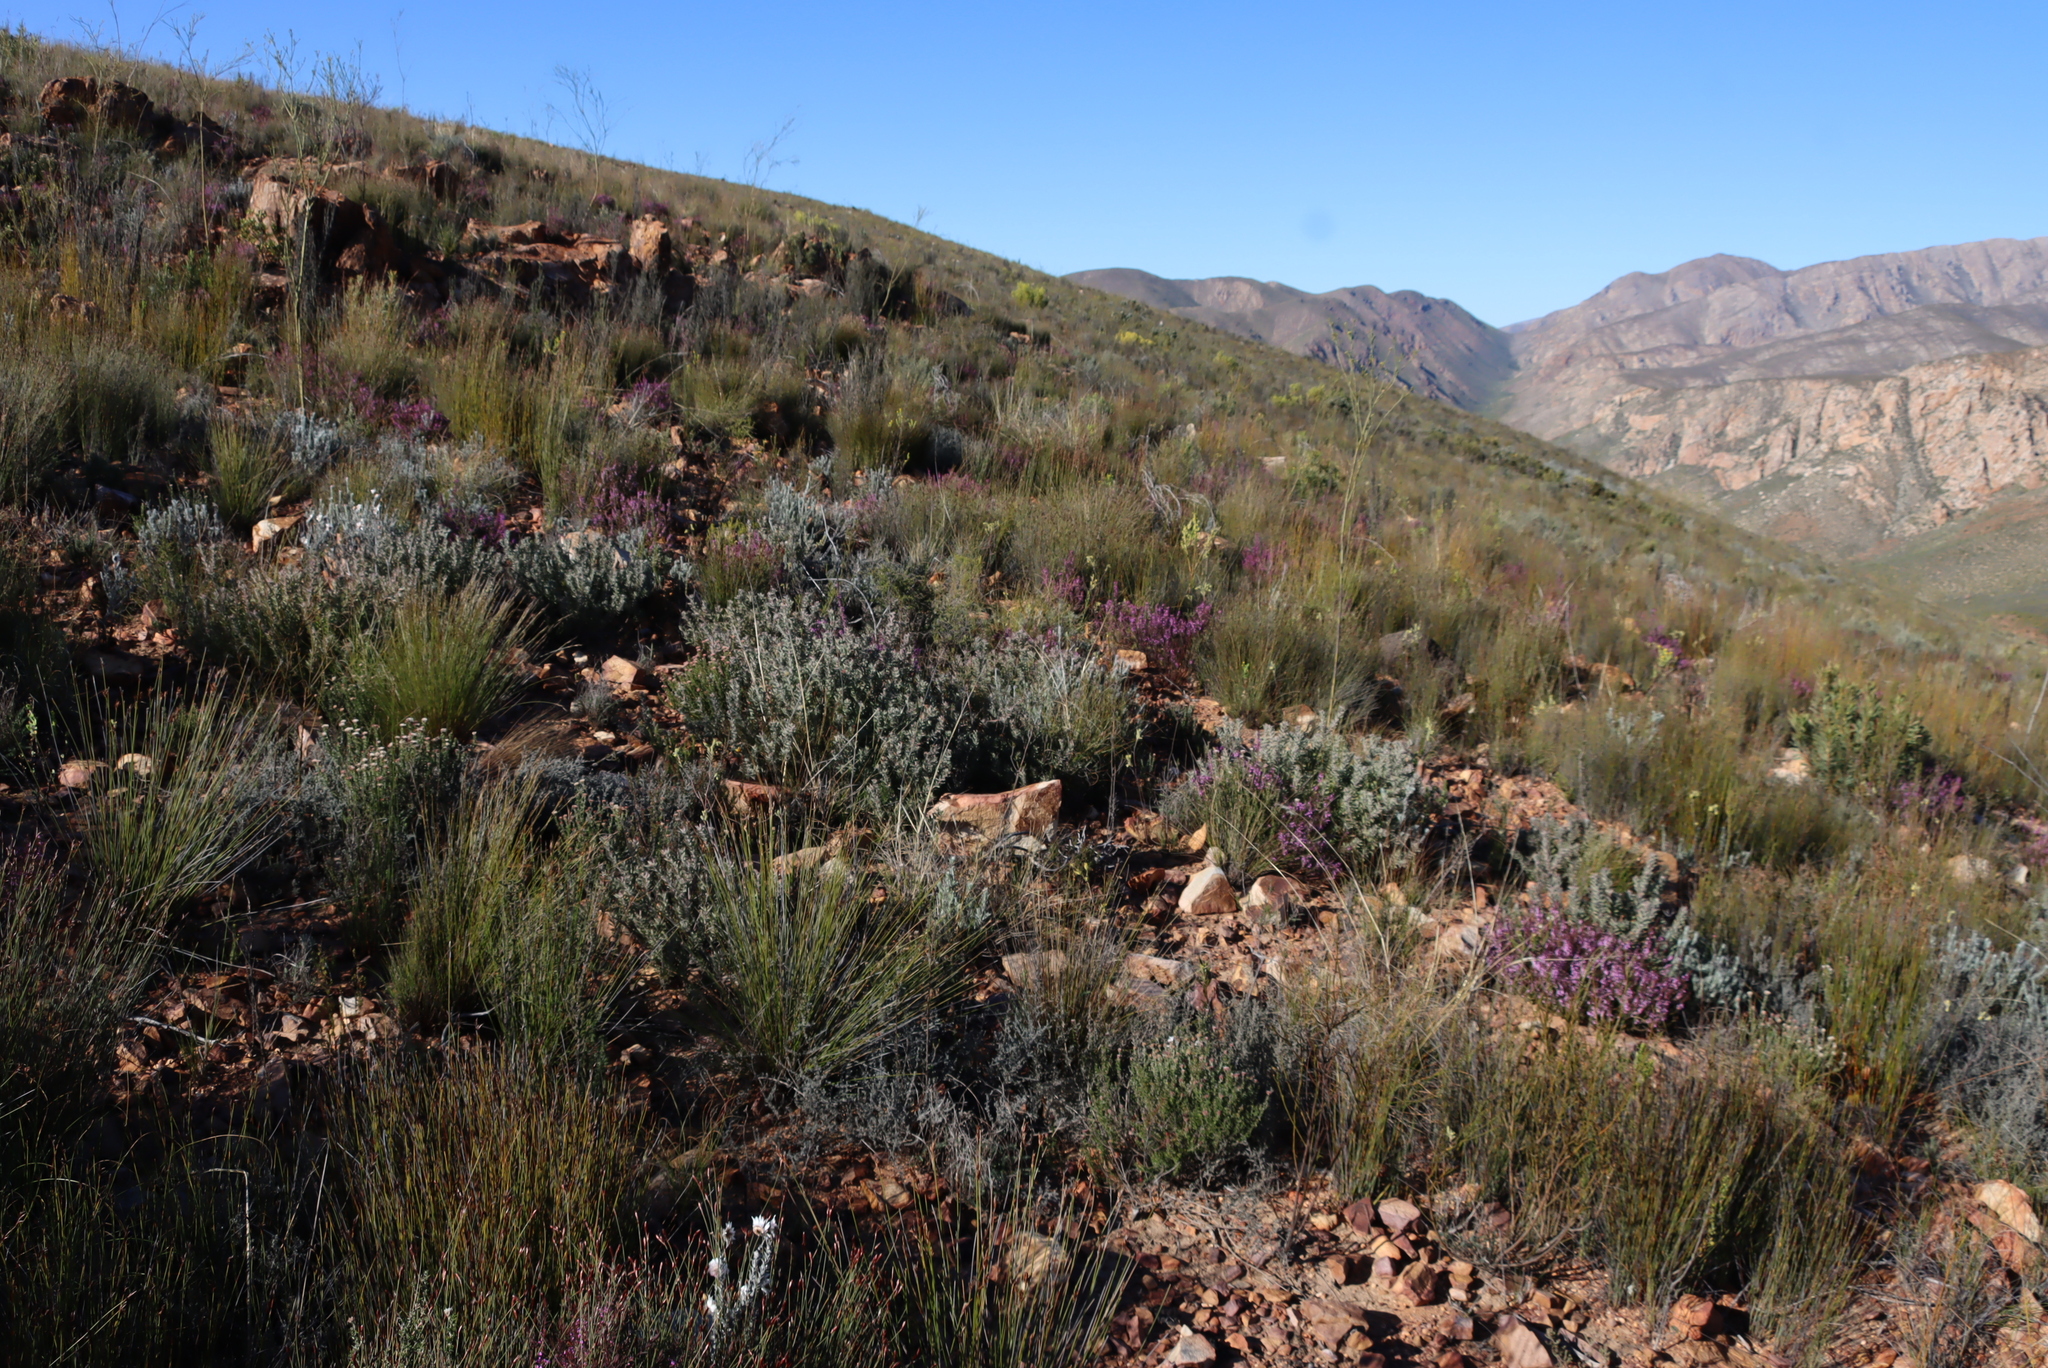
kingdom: Plantae
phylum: Tracheophyta
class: Magnoliopsida
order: Proteales
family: Proteaceae
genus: Leucospermum
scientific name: Leucospermum wittebergense
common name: Swartberg pincushion
